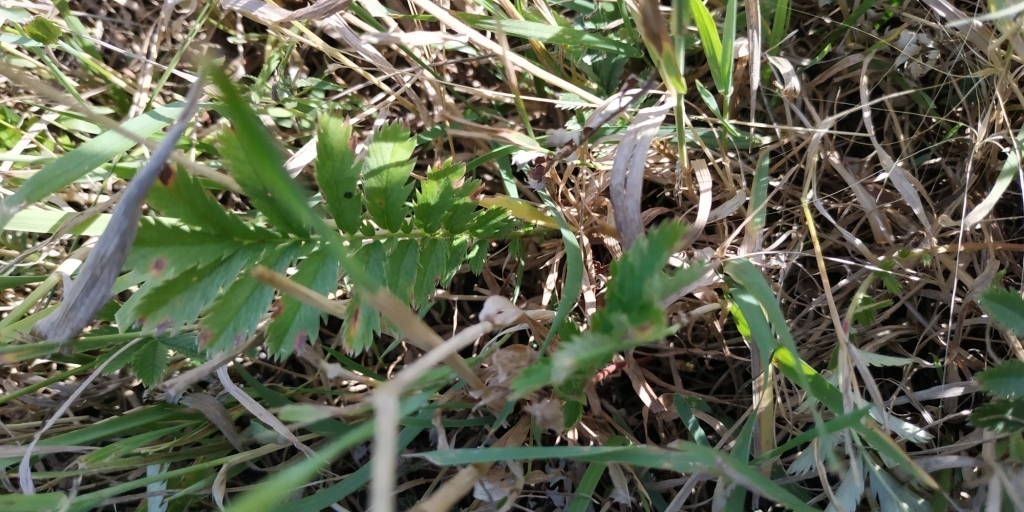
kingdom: Plantae
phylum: Tracheophyta
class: Magnoliopsida
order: Rosales
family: Rosaceae
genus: Argentina
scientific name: Argentina anserina
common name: Common silverweed
